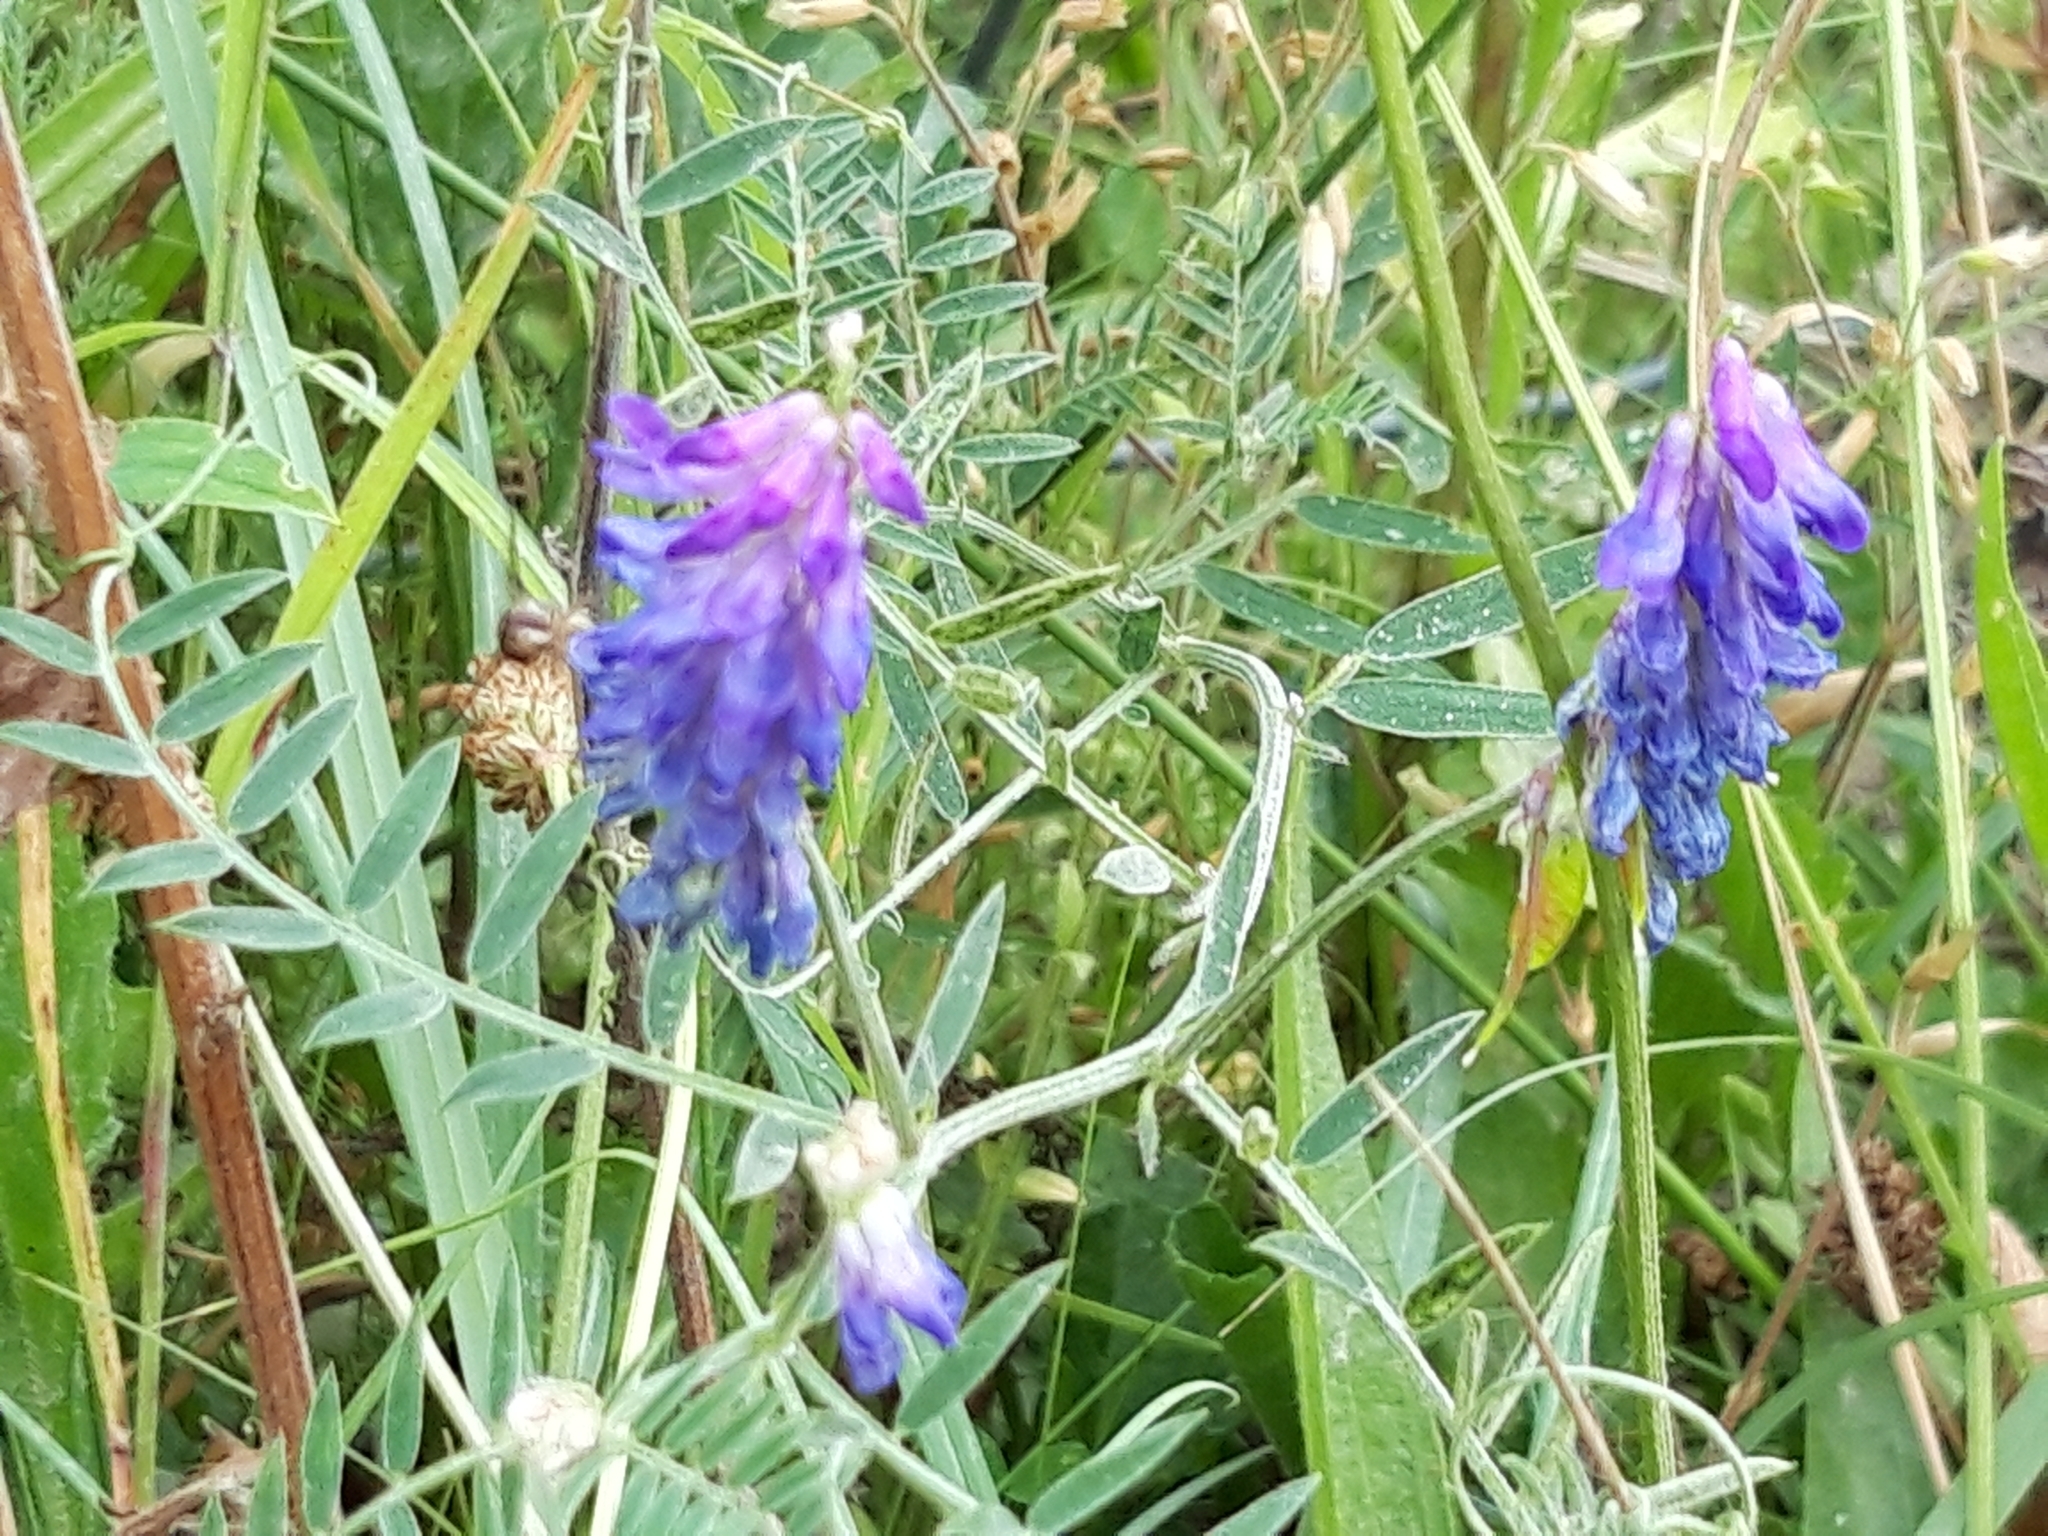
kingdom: Plantae
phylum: Tracheophyta
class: Magnoliopsida
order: Fabales
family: Fabaceae
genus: Vicia
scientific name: Vicia cracca
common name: Bird vetch
